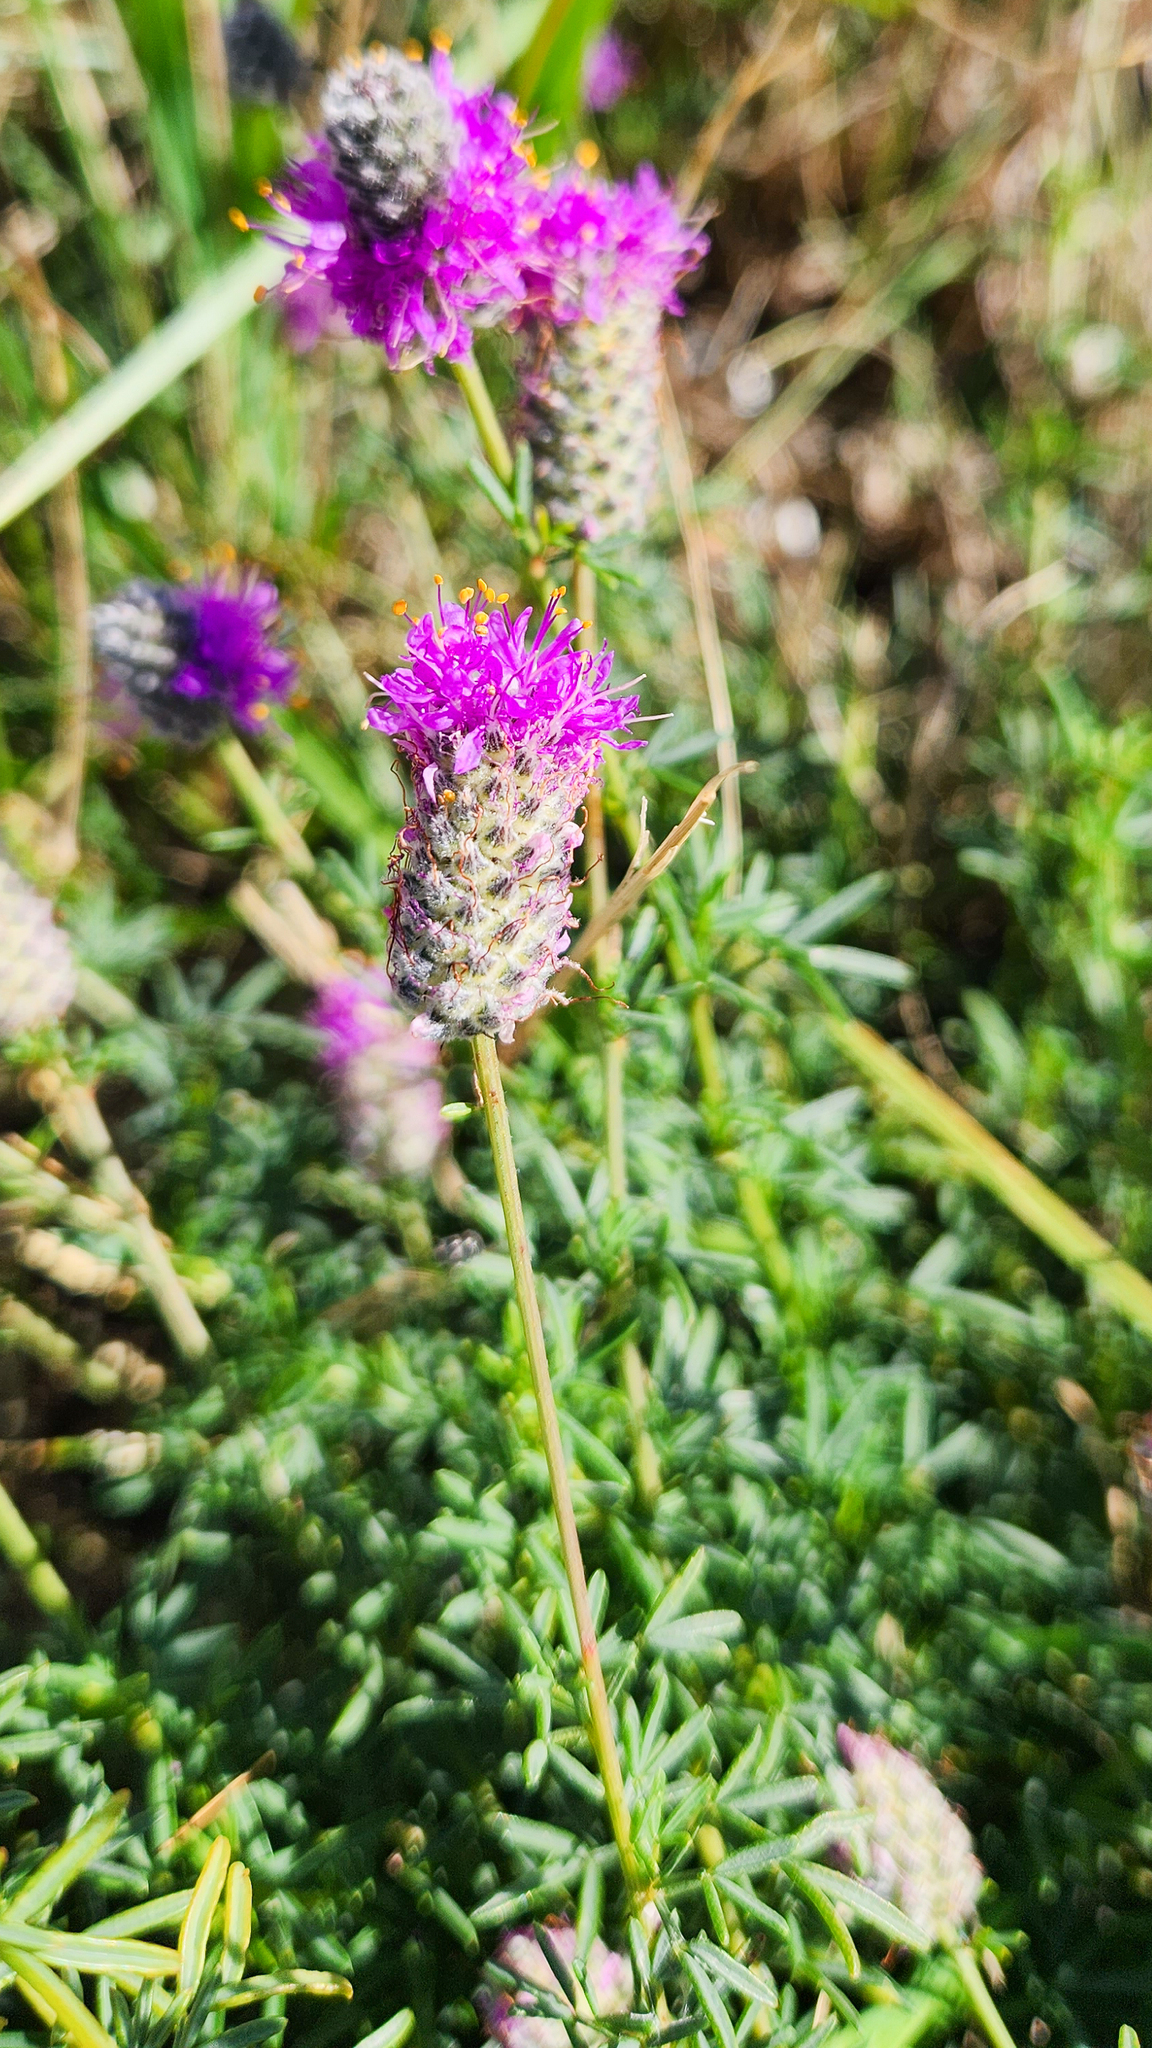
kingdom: Plantae
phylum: Tracheophyta
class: Magnoliopsida
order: Fabales
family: Fabaceae
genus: Dalea
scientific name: Dalea purpurea
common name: Purple prairie-clover
